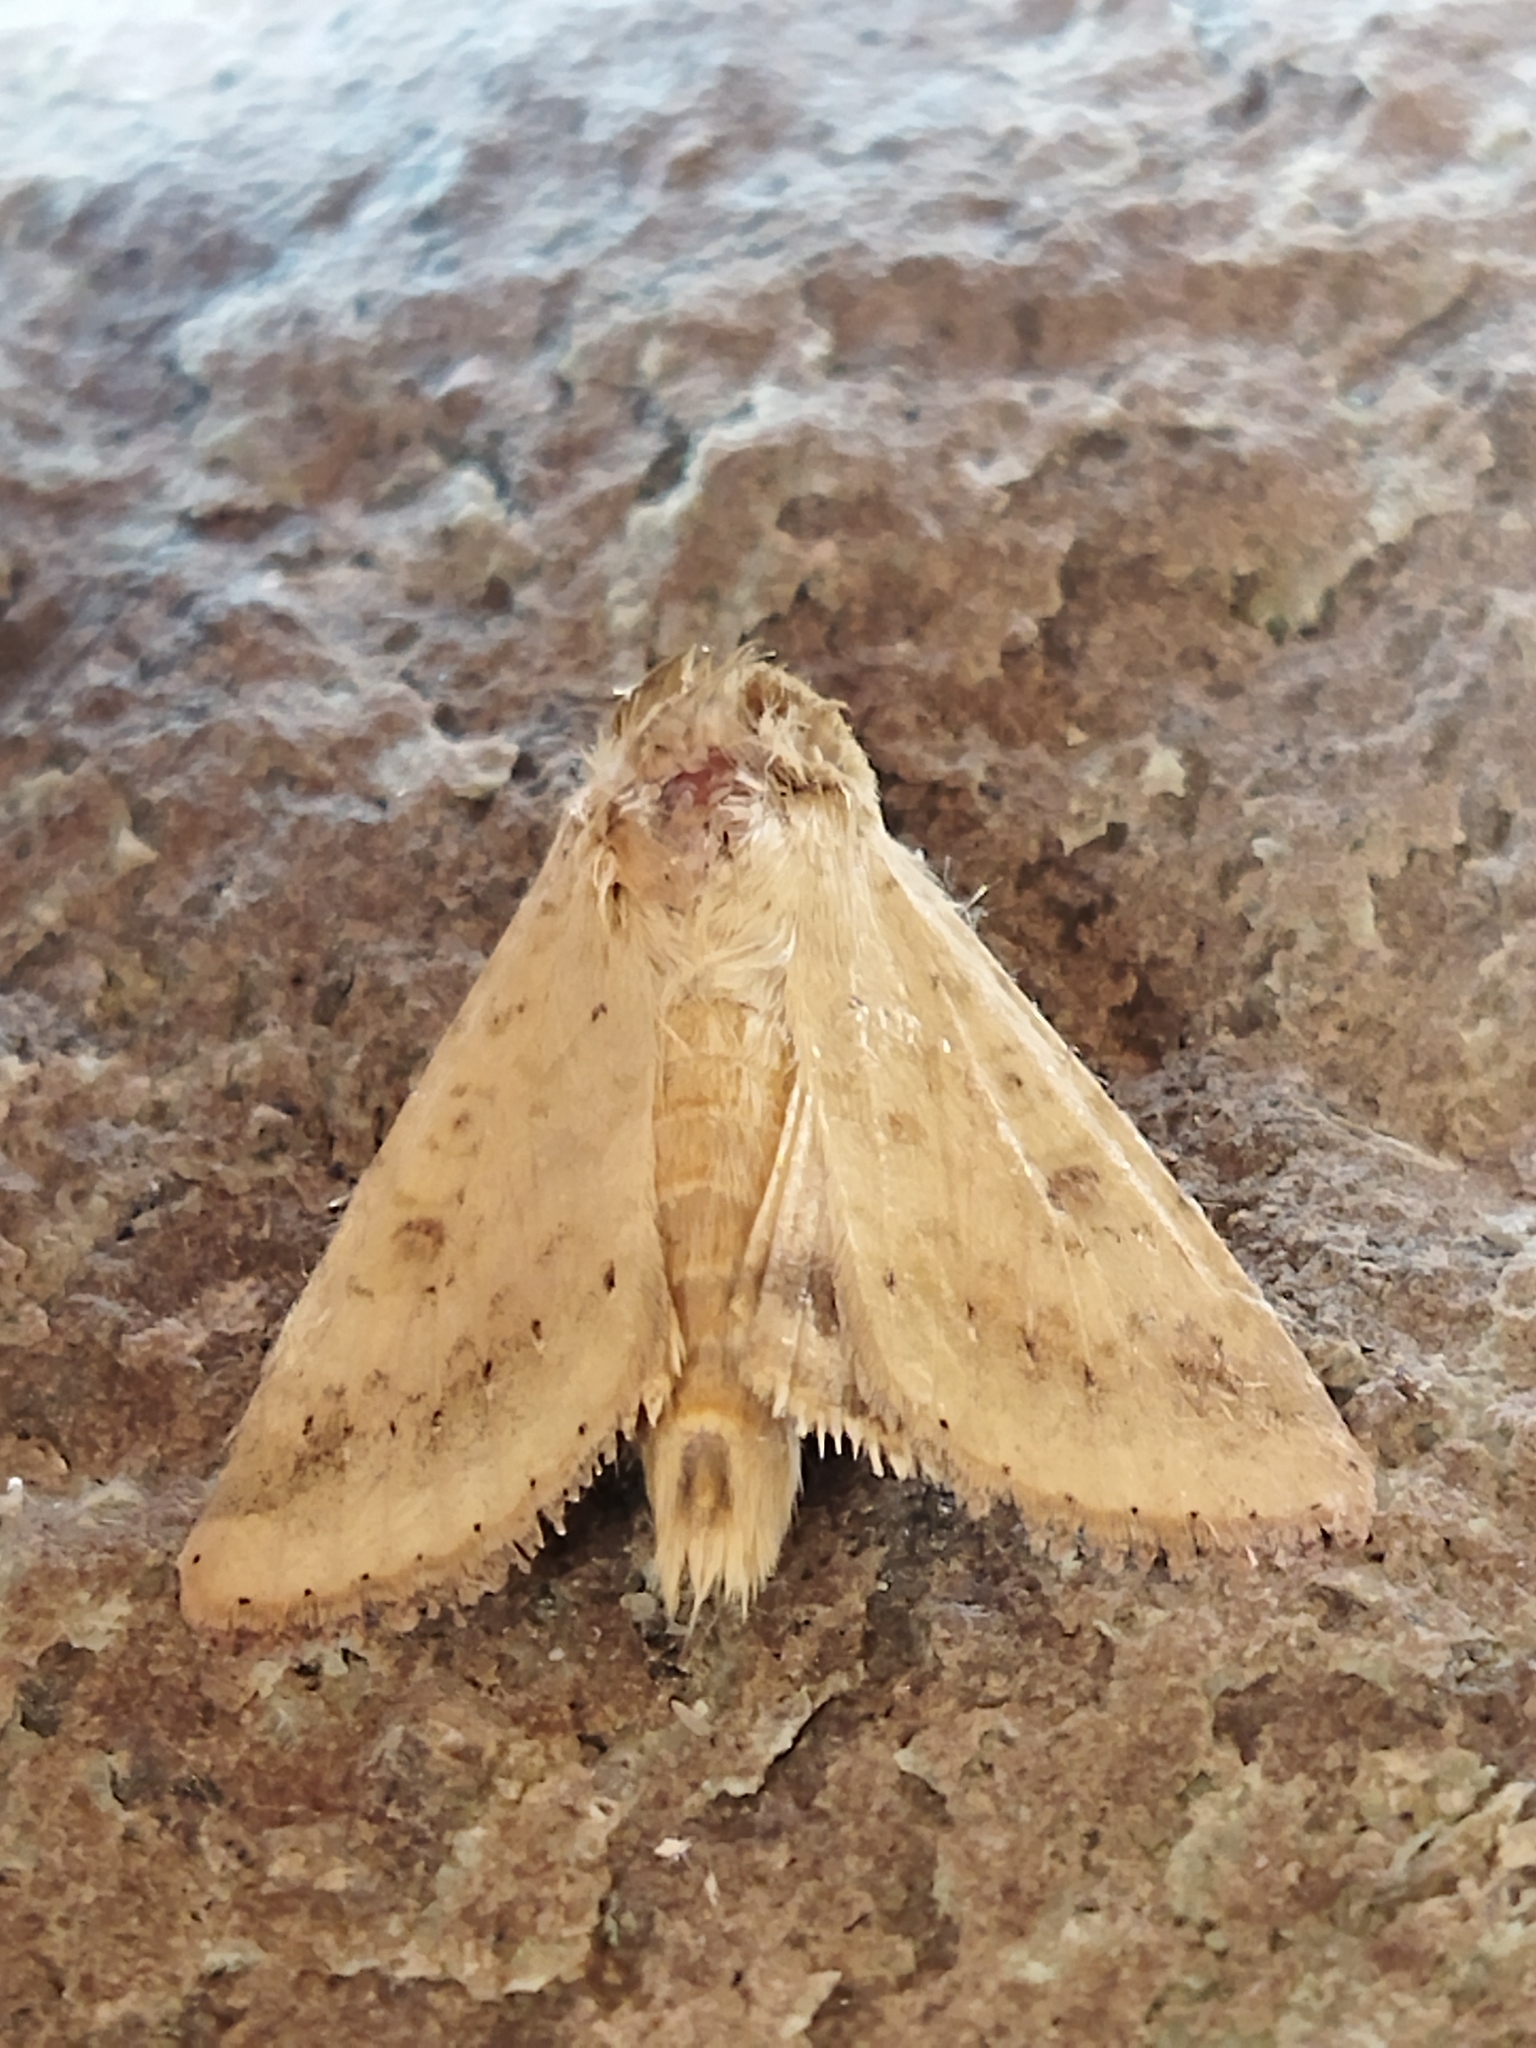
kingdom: Animalia
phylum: Arthropoda
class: Insecta
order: Lepidoptera
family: Noctuidae
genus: Helicoverpa
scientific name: Helicoverpa armigera
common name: Cotton bollworm
